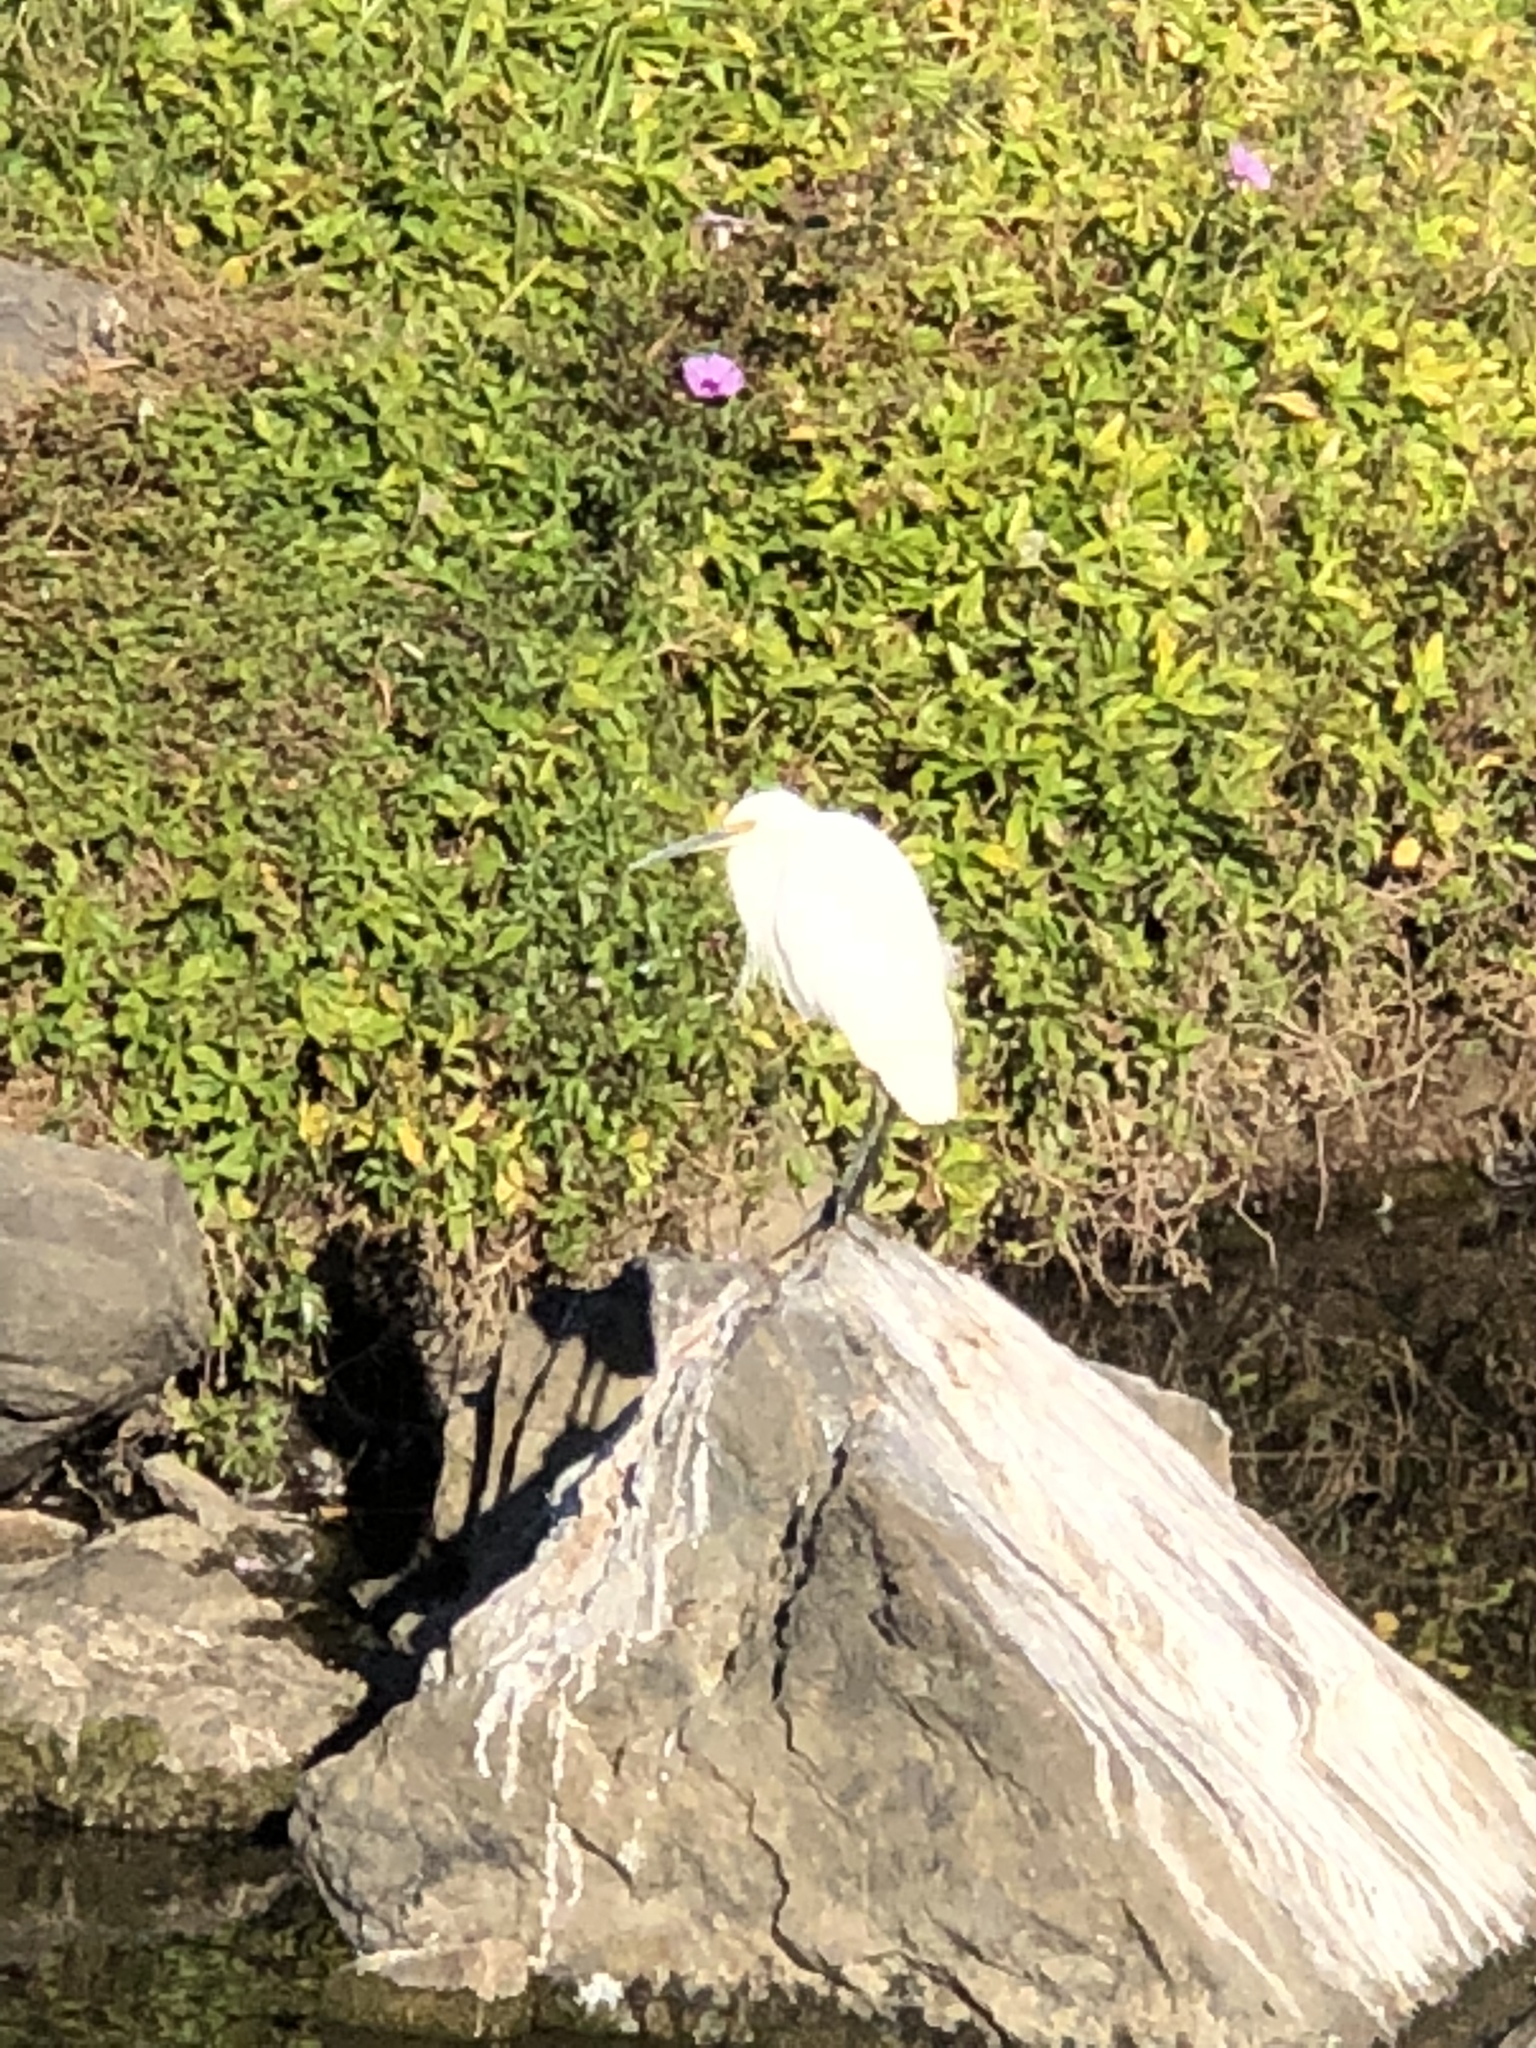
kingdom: Animalia
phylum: Chordata
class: Aves
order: Pelecaniformes
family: Ardeidae
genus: Egretta
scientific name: Egretta garzetta
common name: Little egret
